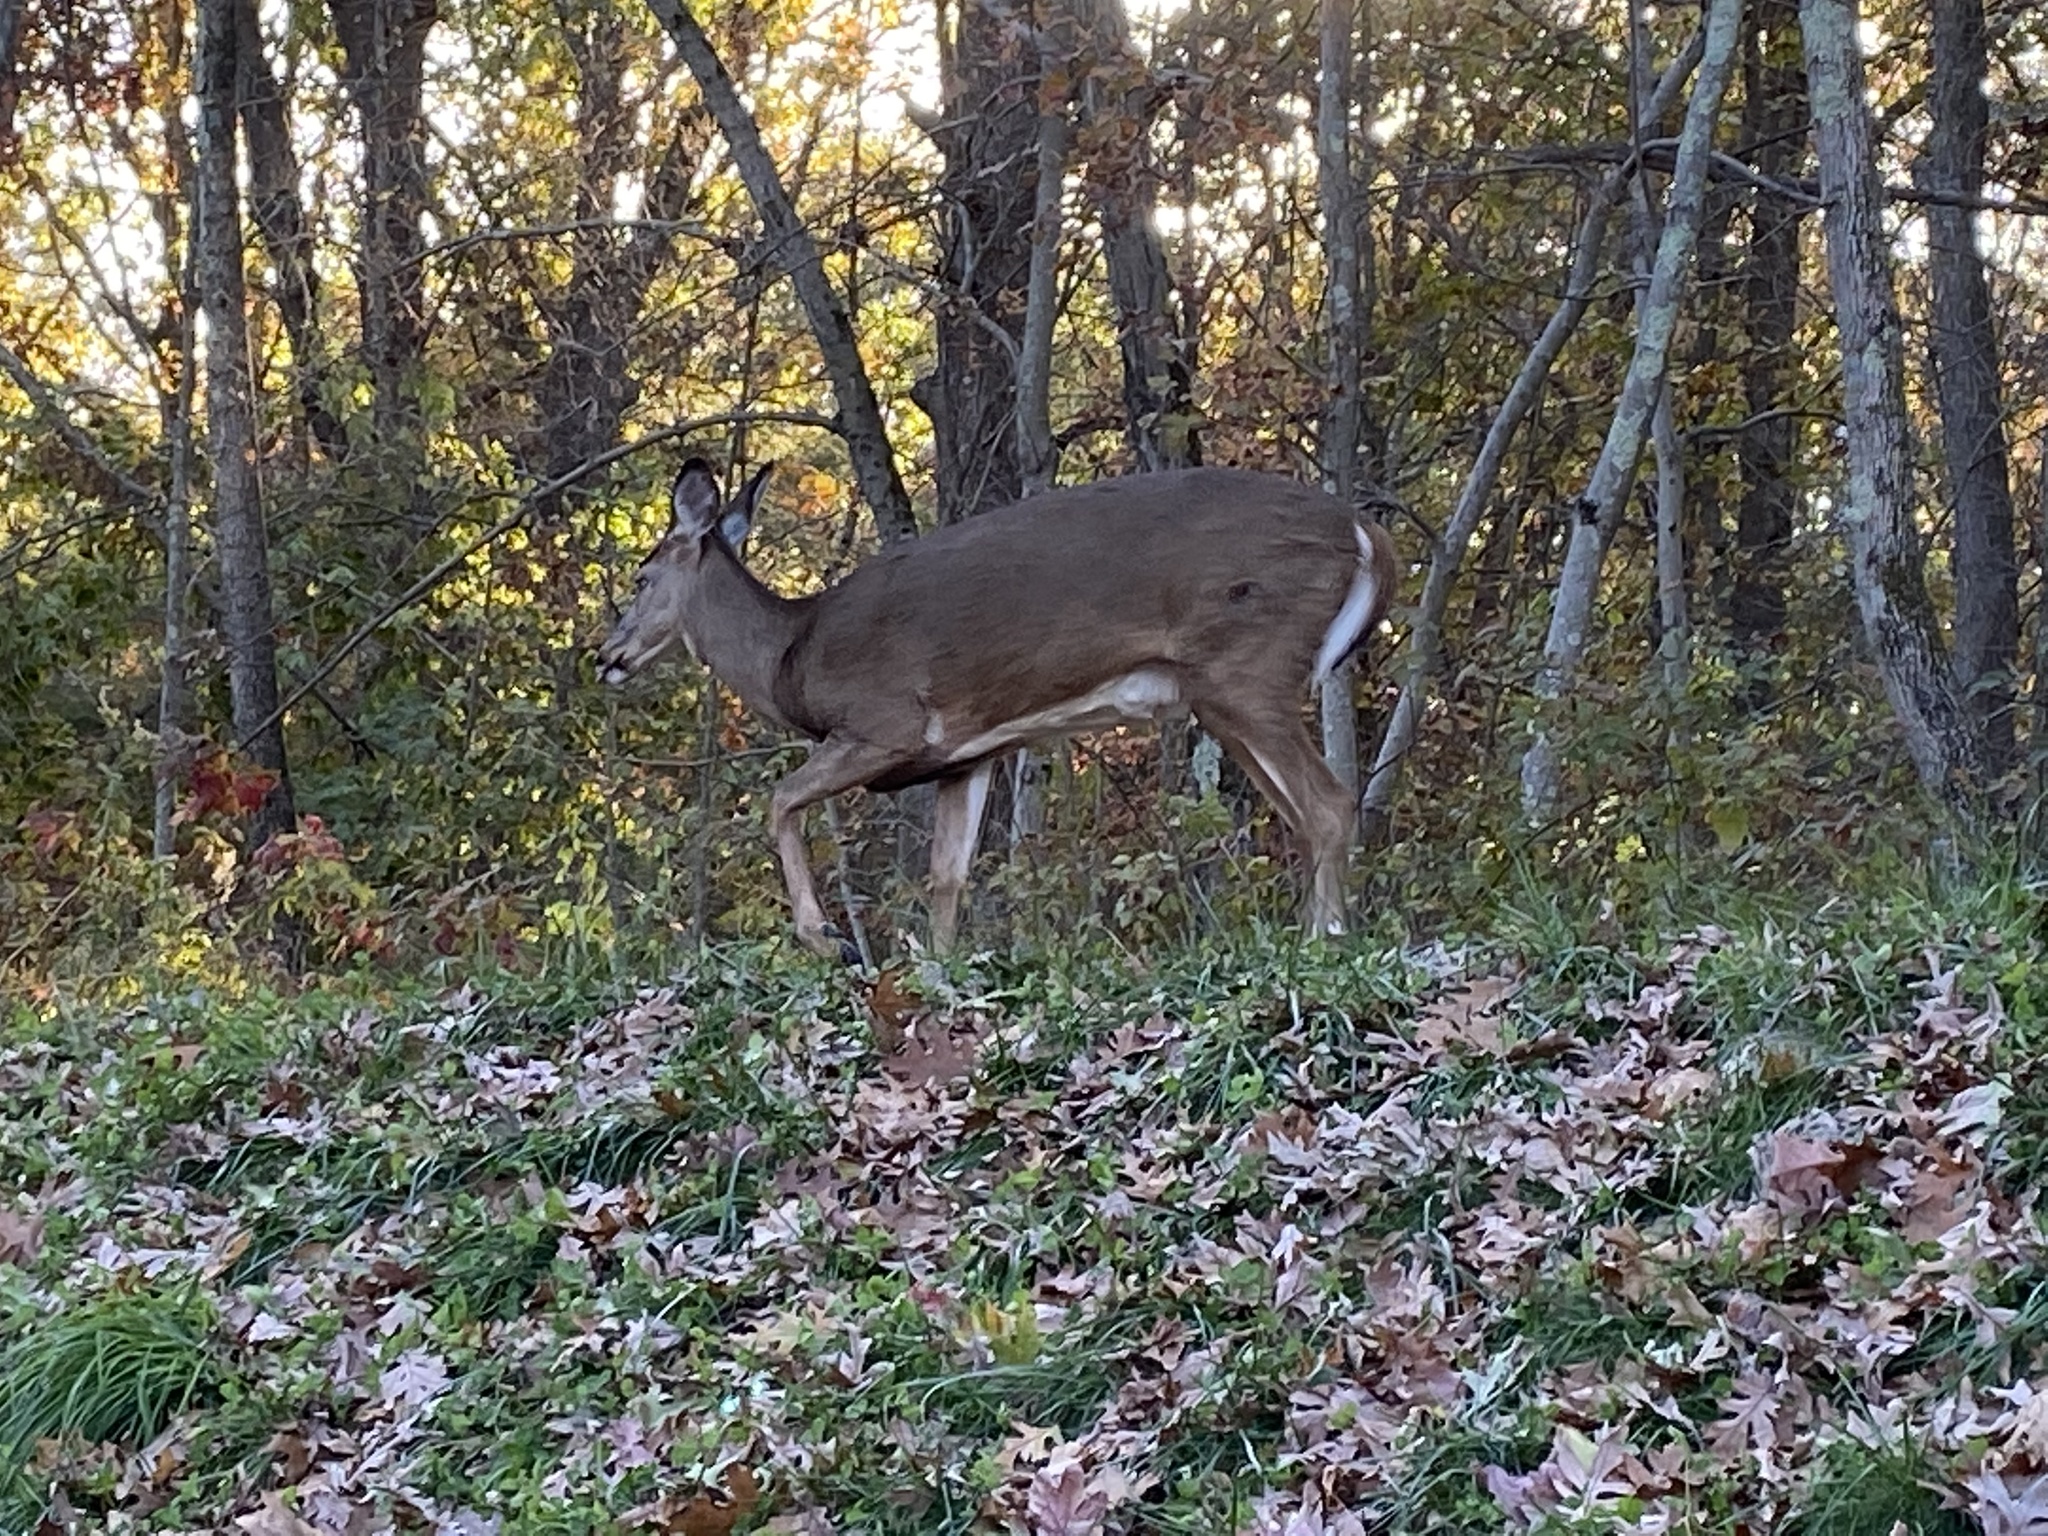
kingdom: Animalia
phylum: Chordata
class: Mammalia
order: Artiodactyla
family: Cervidae
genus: Odocoileus
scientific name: Odocoileus virginianus
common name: White-tailed deer
